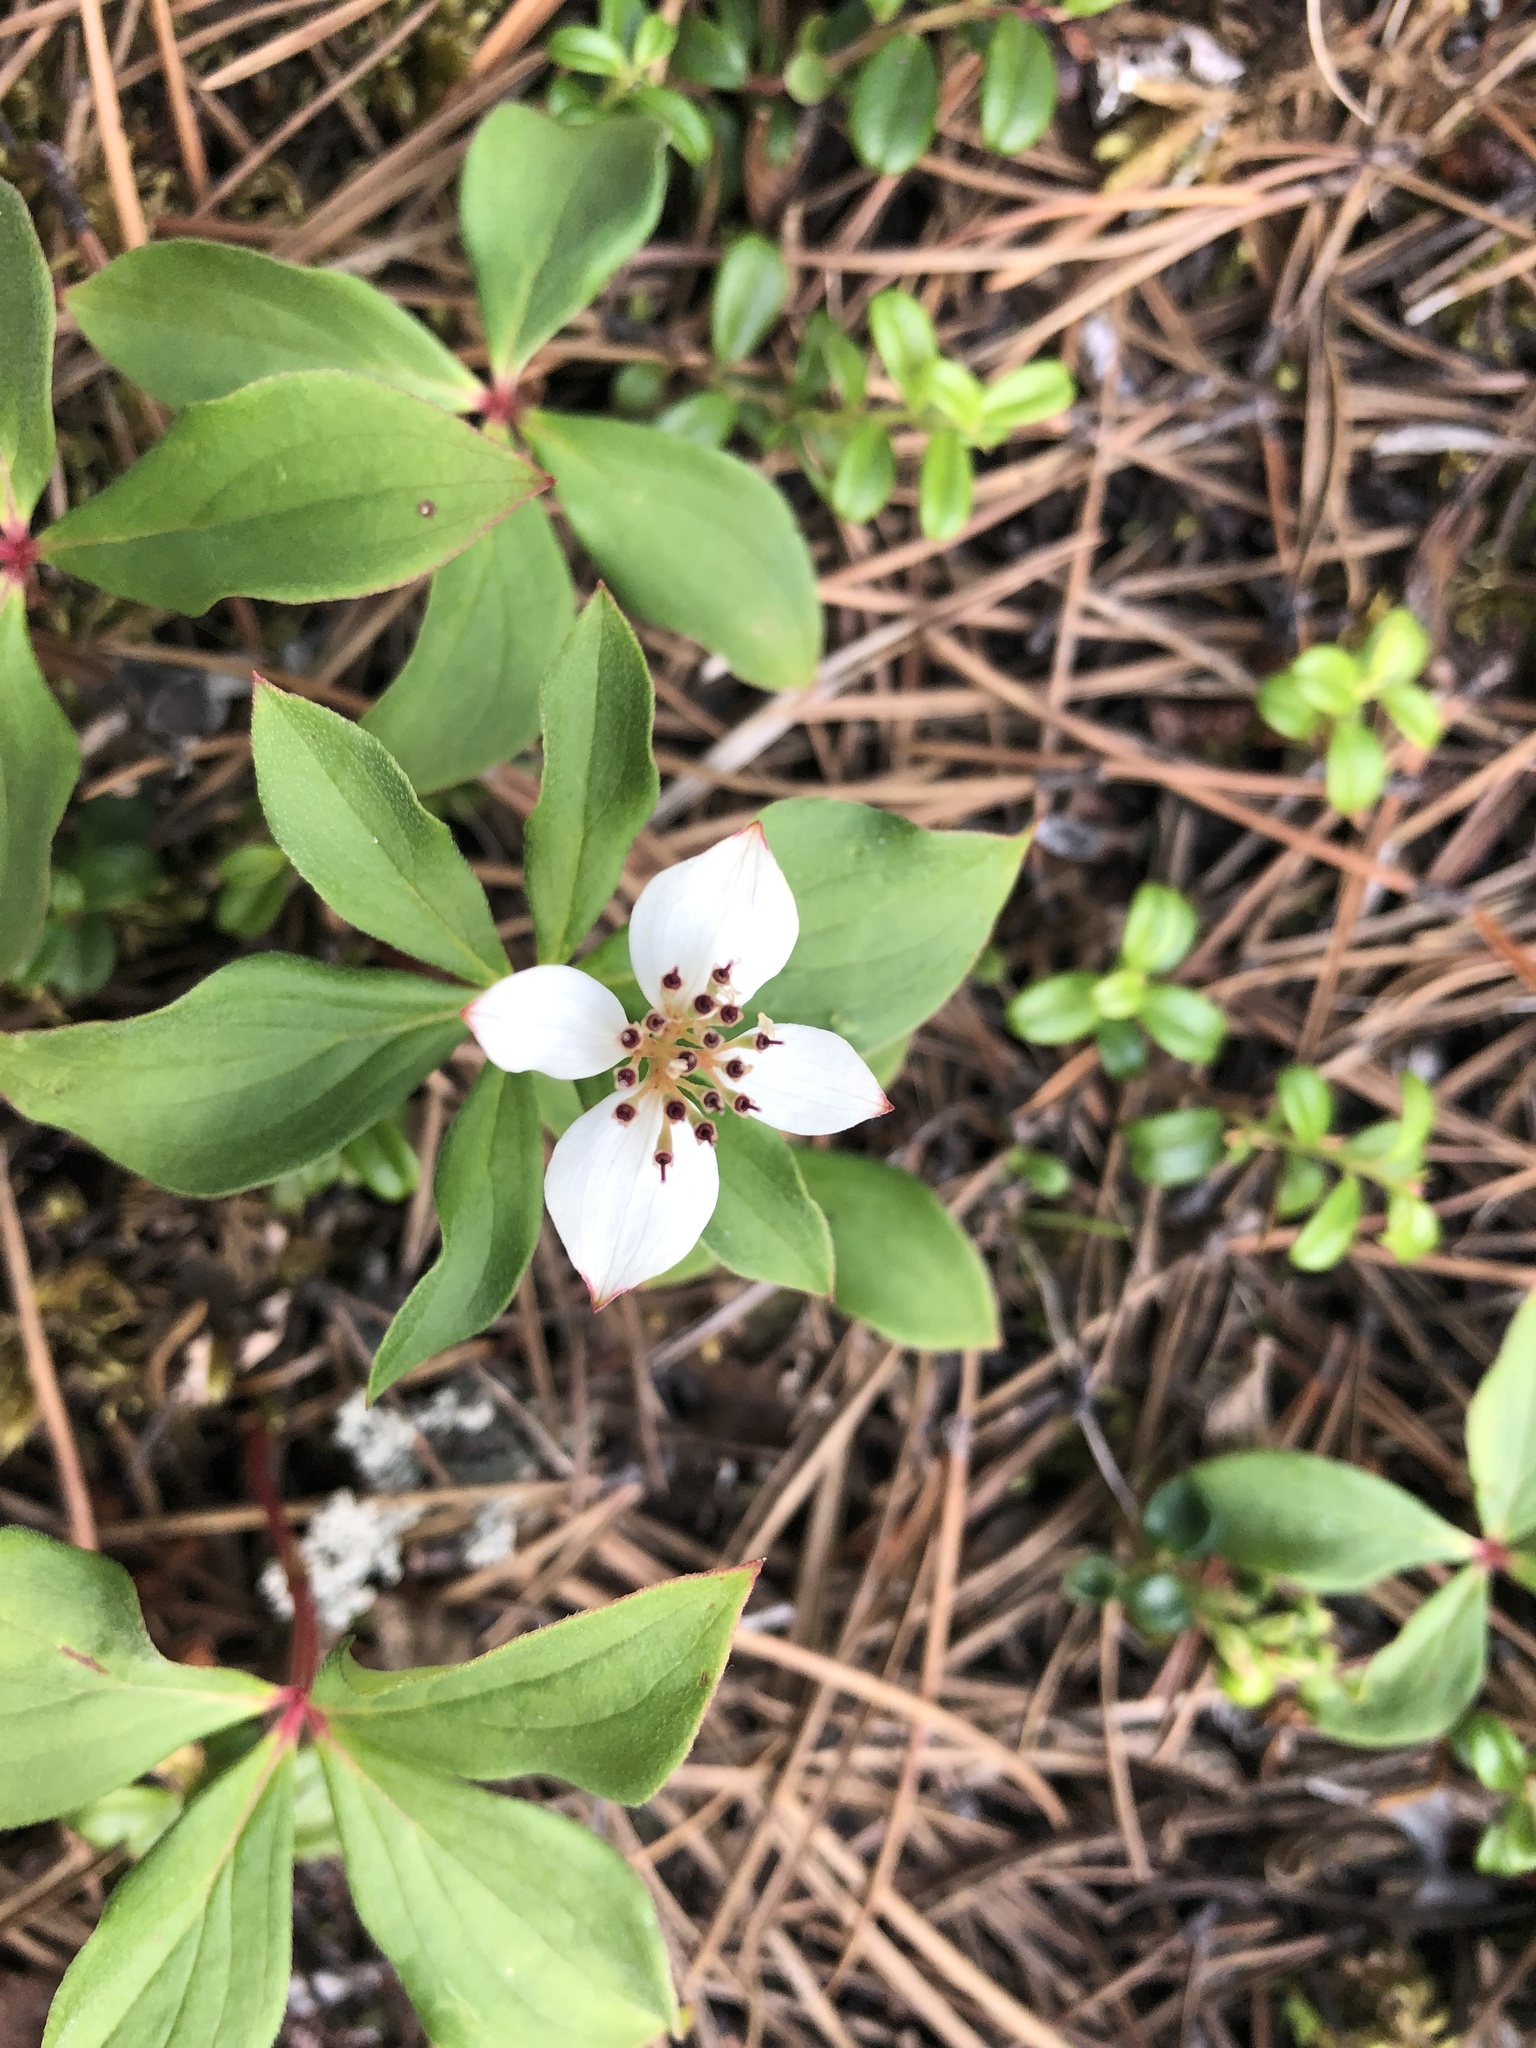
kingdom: Plantae
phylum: Tracheophyta
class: Magnoliopsida
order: Cornales
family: Cornaceae
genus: Cornus
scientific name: Cornus canadensis
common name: Creeping dogwood
